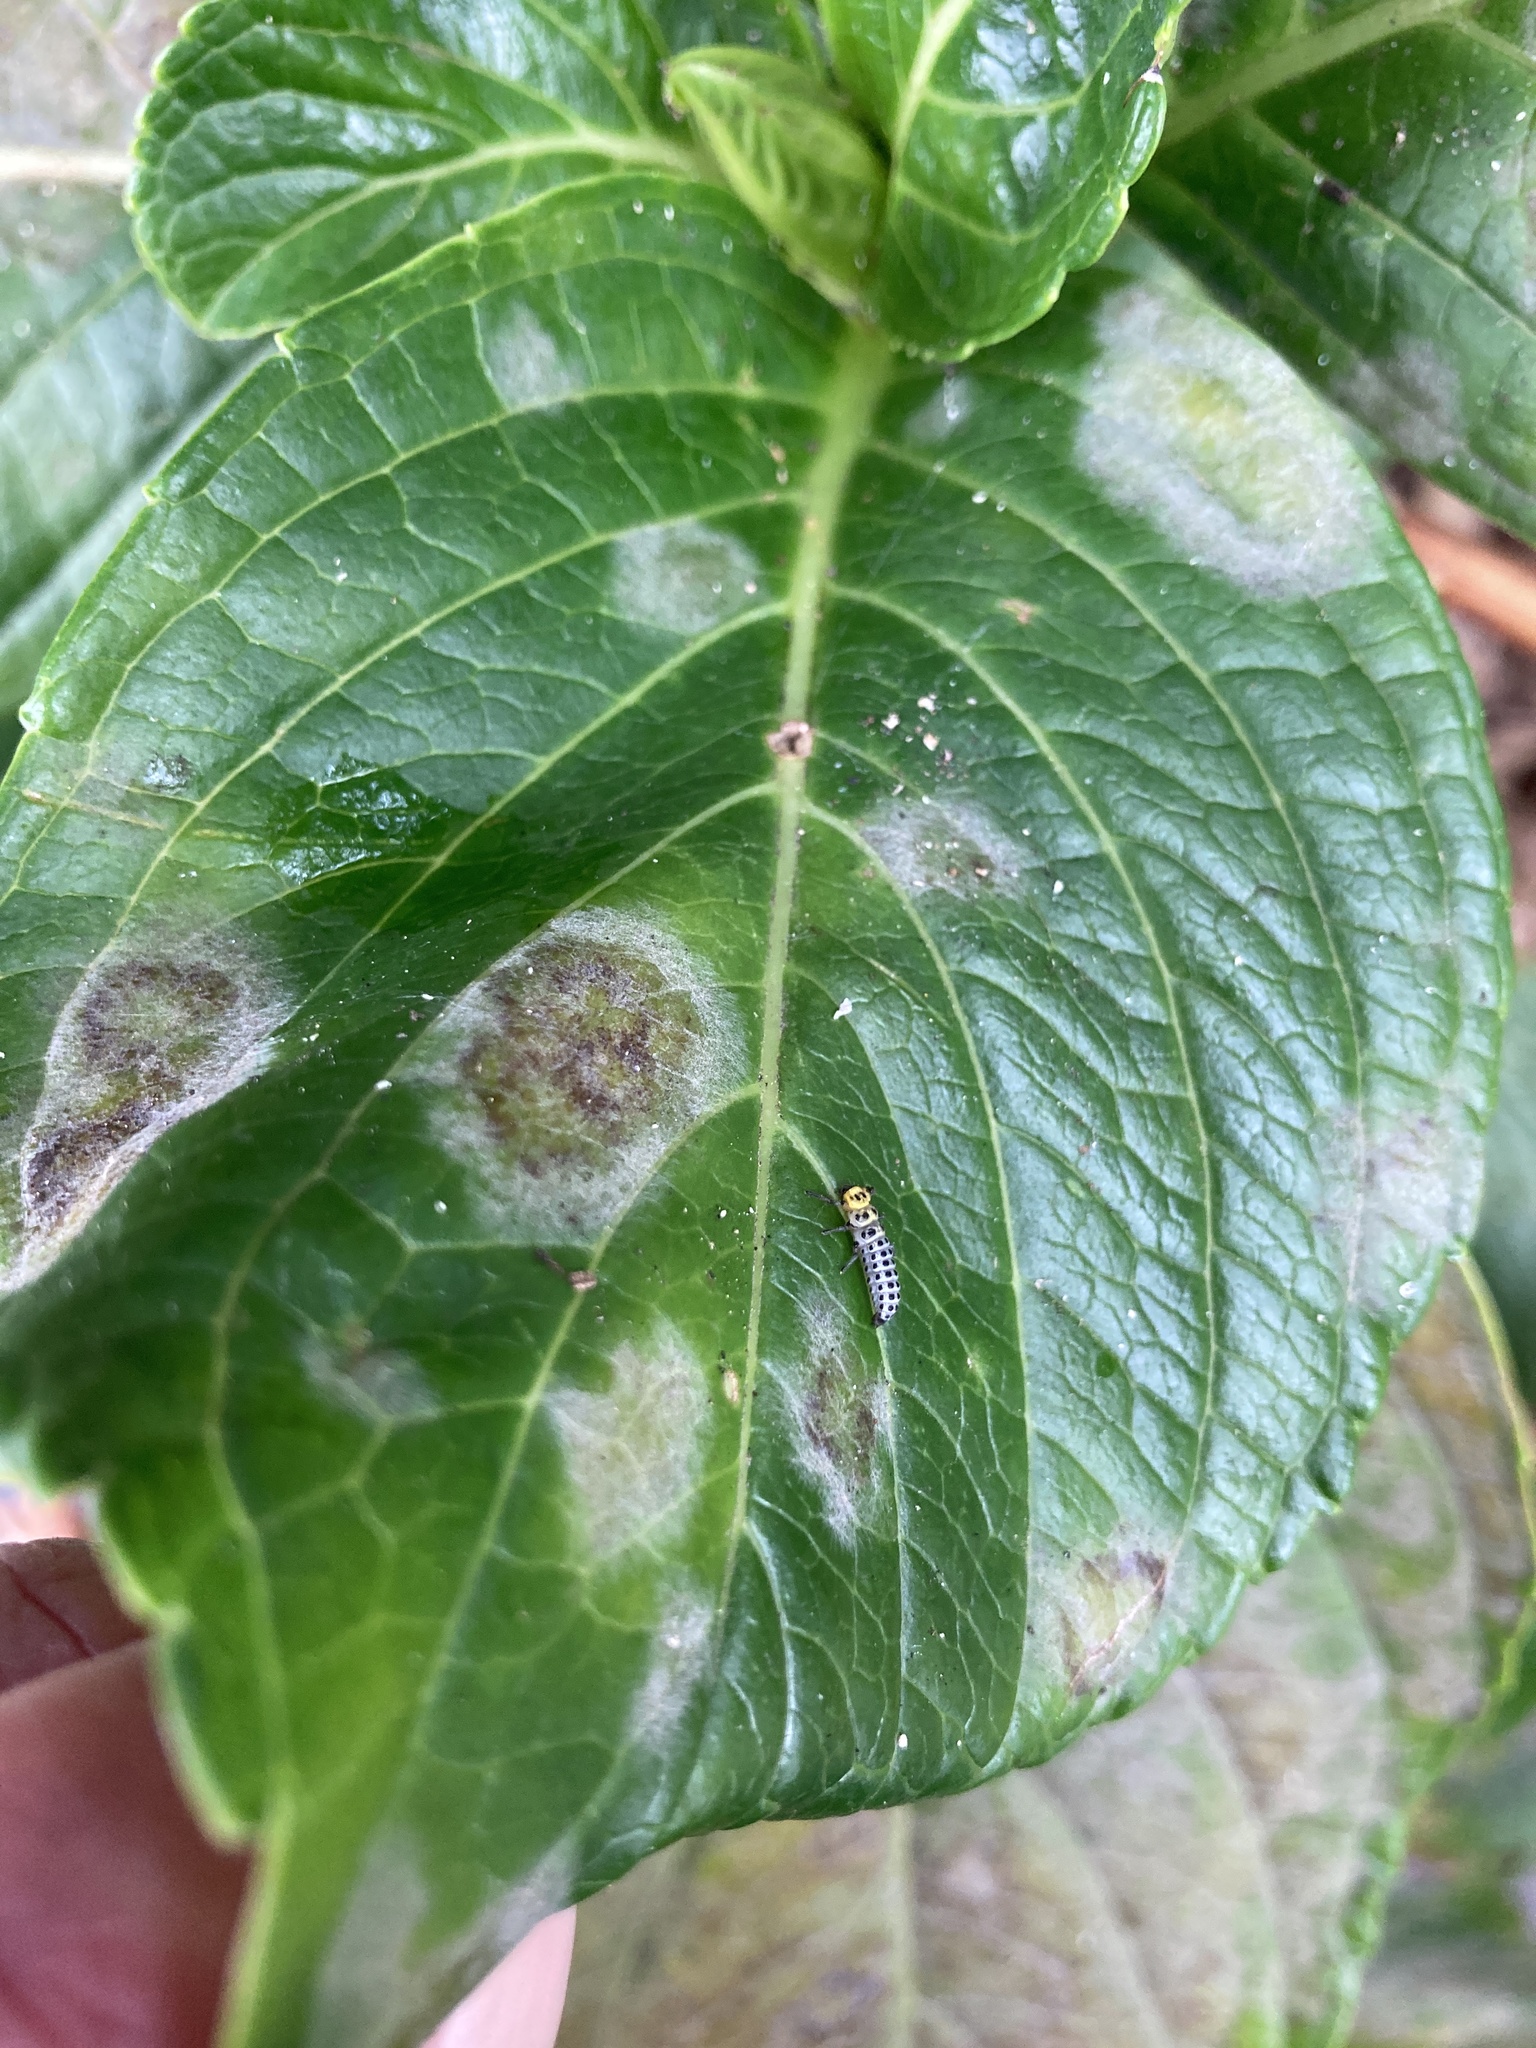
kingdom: Animalia
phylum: Arthropoda
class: Insecta
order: Coleoptera
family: Coccinellidae
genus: Illeis
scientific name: Illeis galbula
